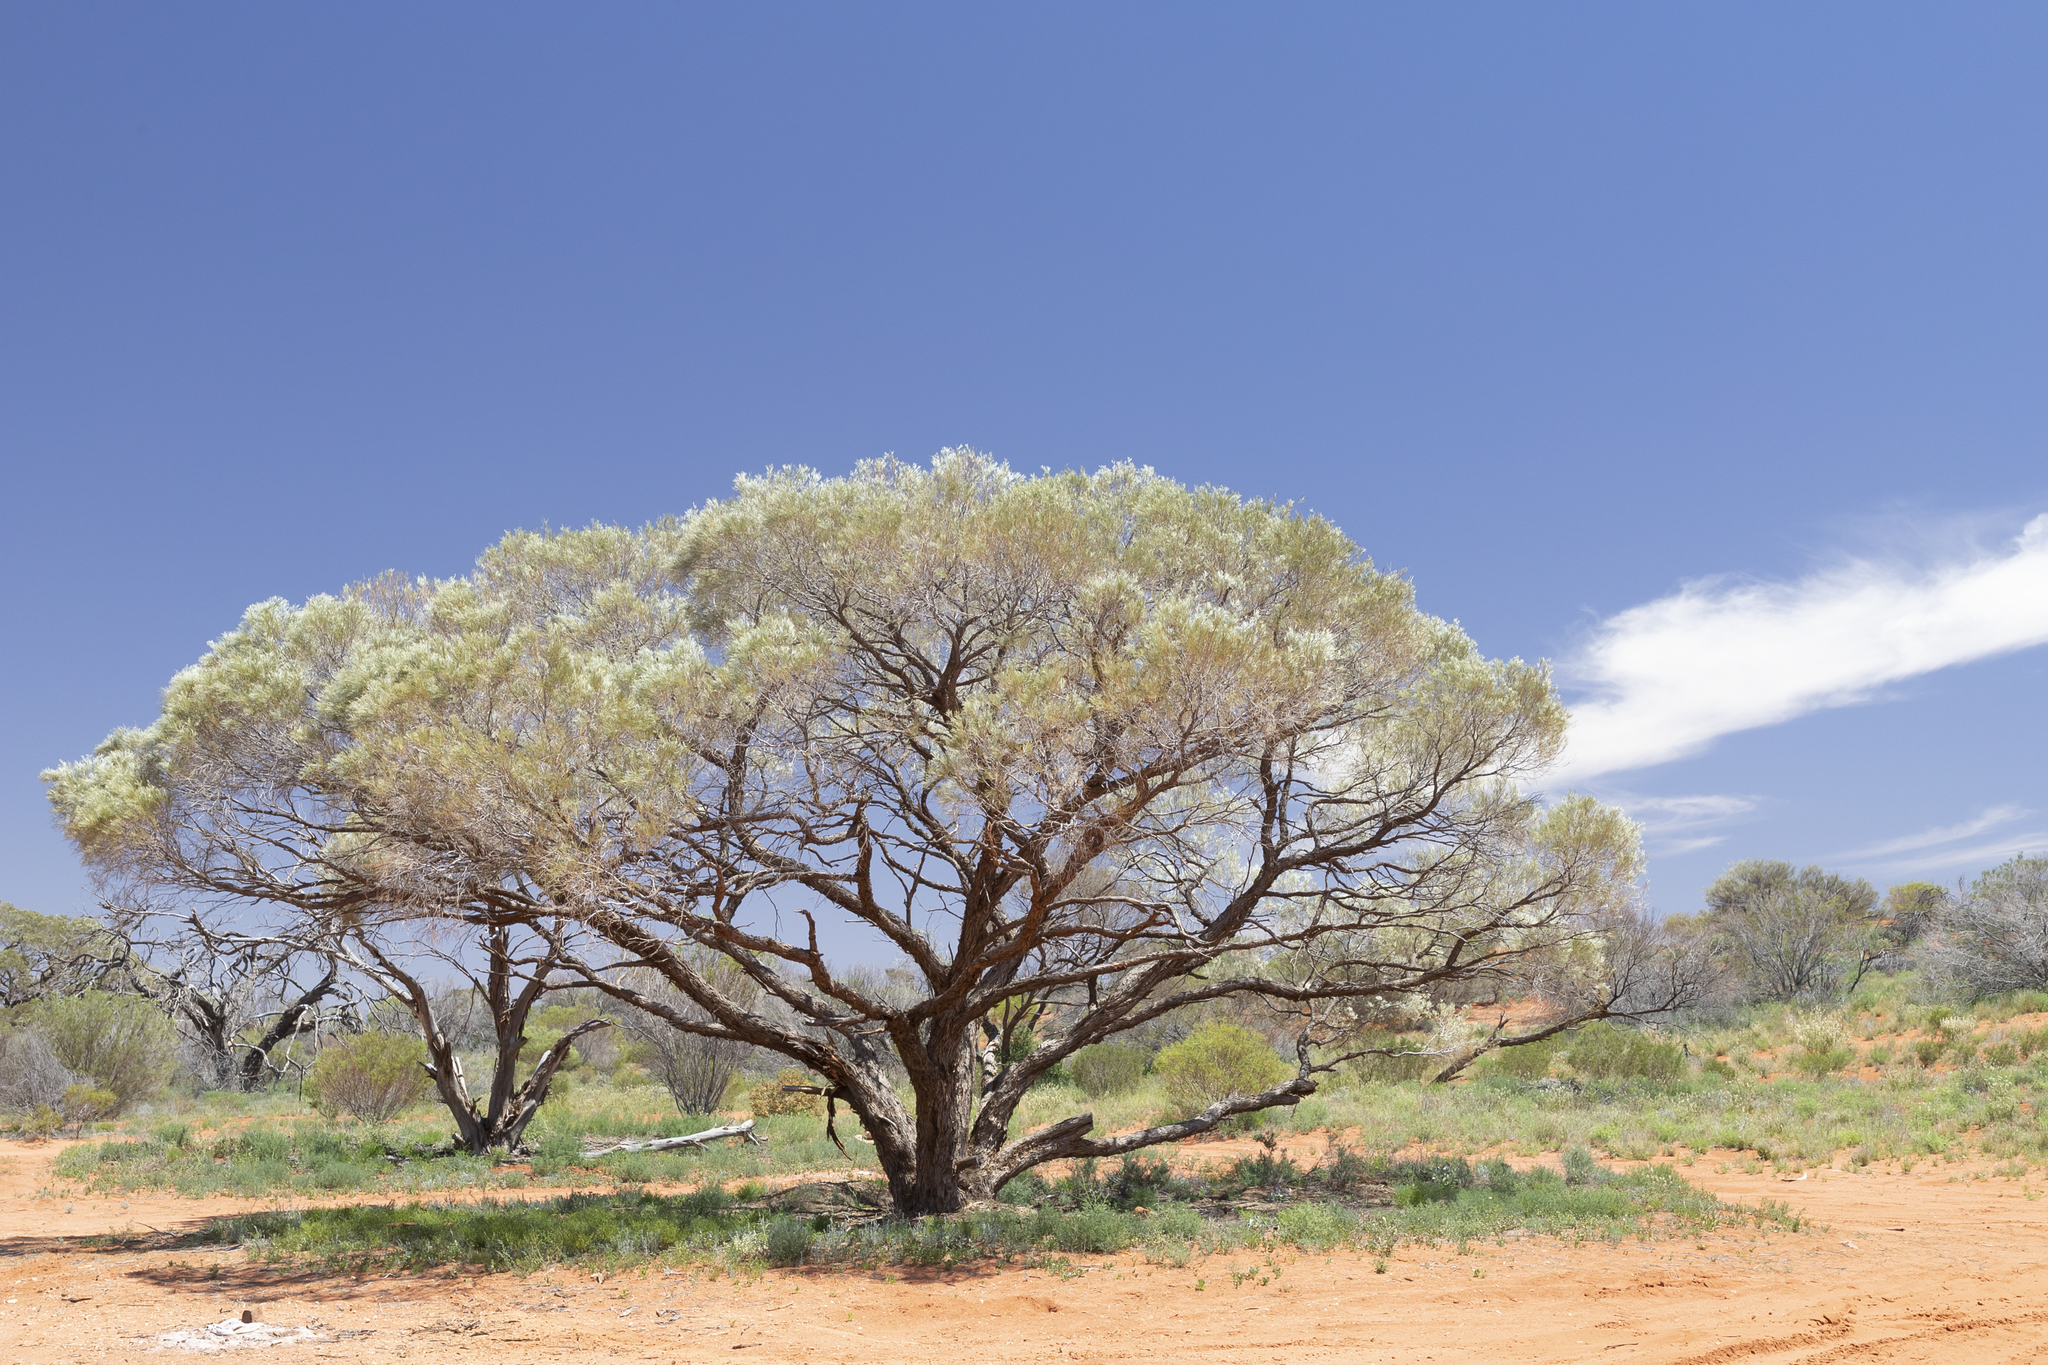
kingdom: Plantae
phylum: Tracheophyta
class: Magnoliopsida
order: Fabales
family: Fabaceae
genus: Acacia
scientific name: Acacia papyrocarpa
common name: Western myall
